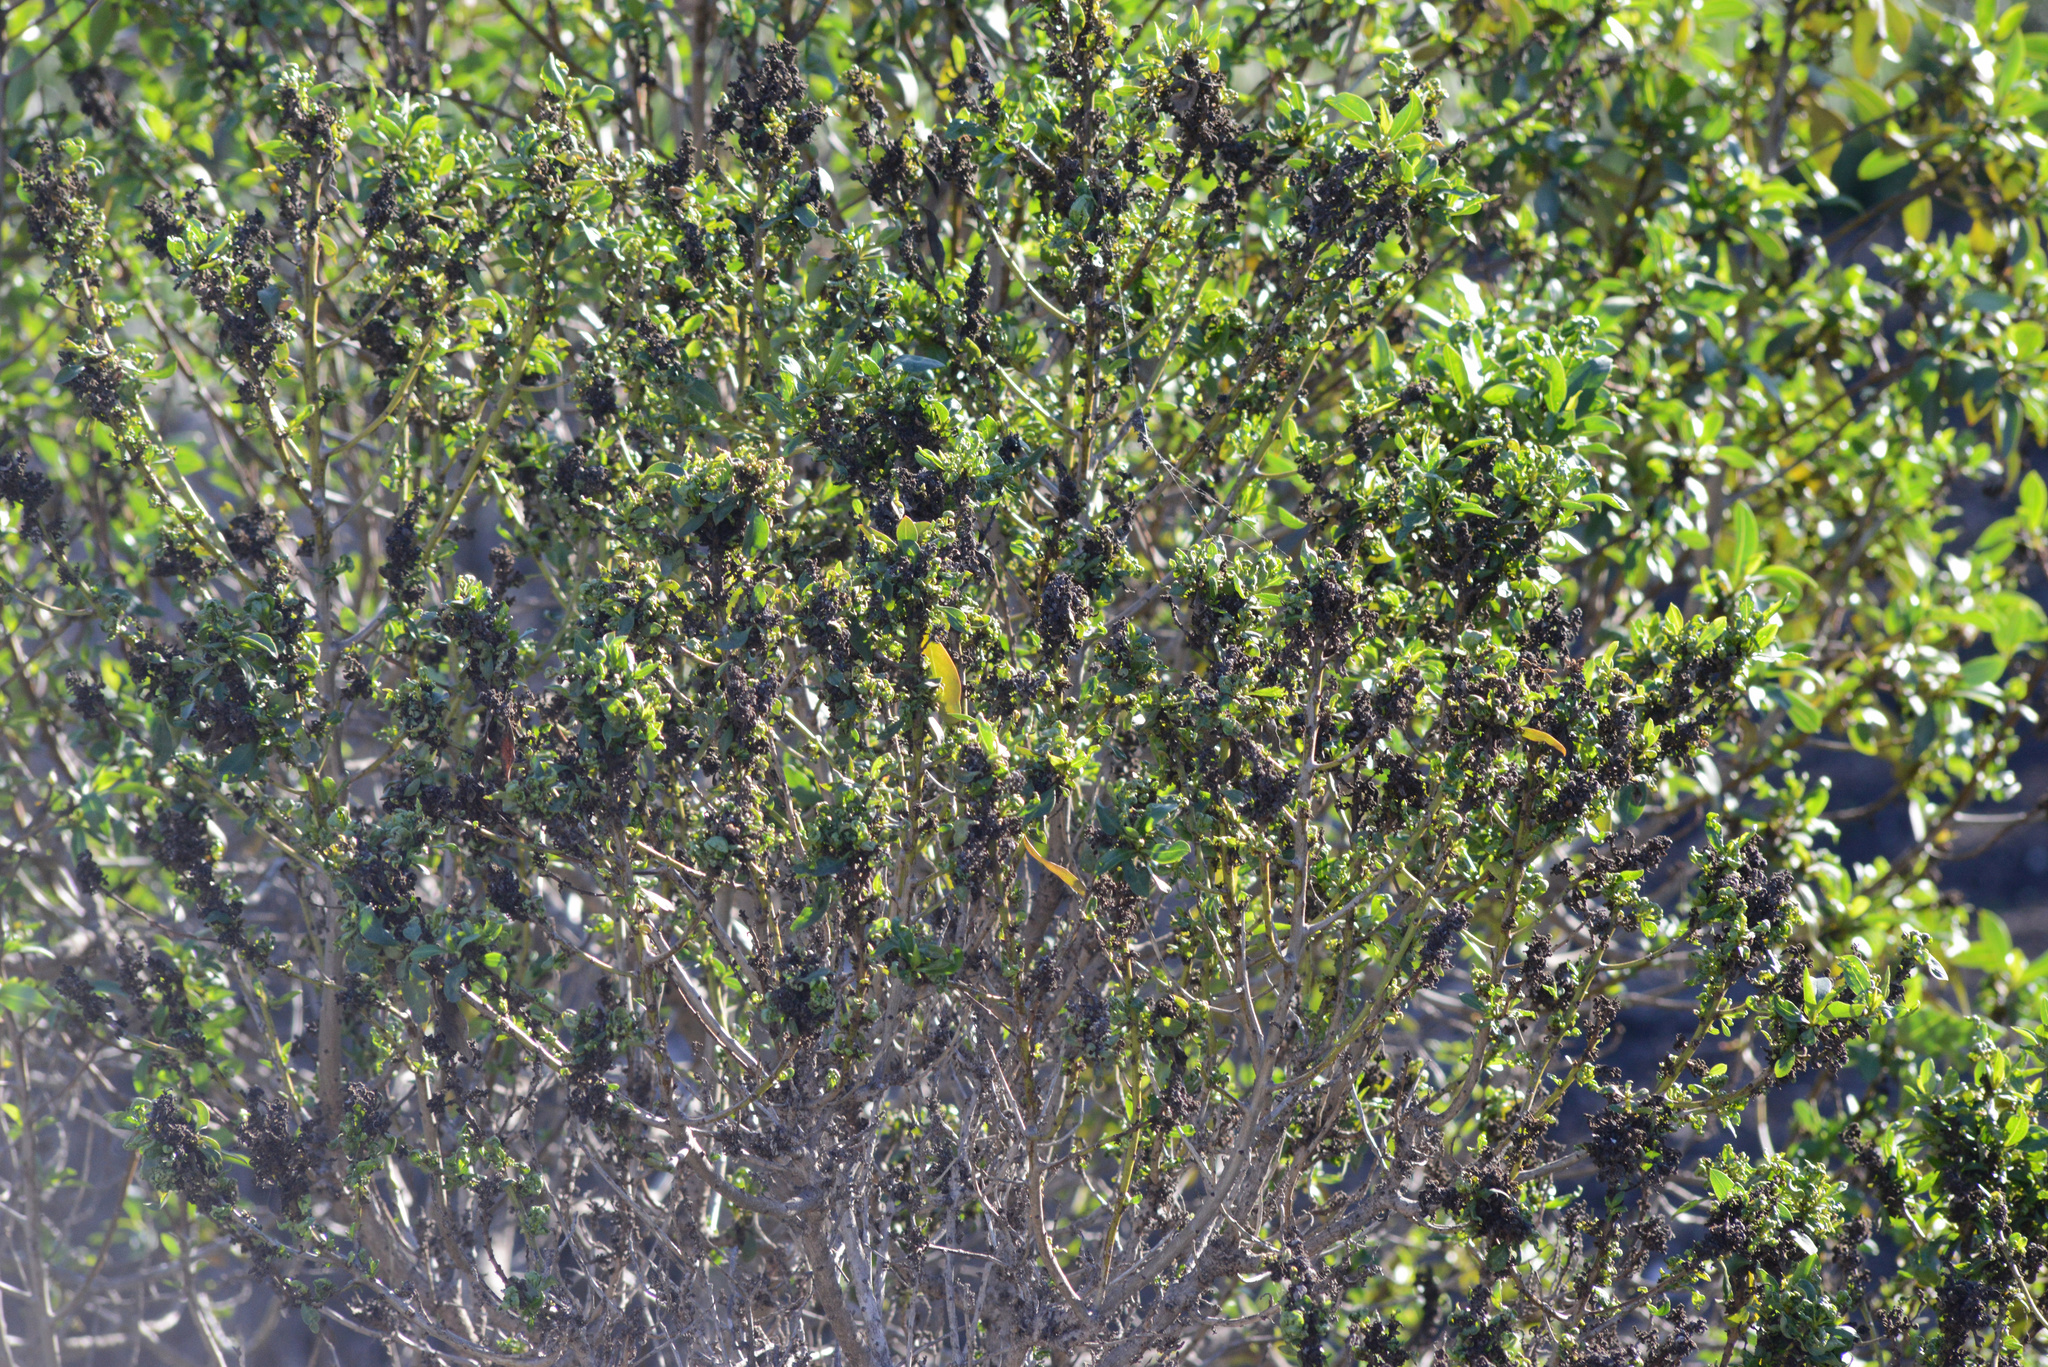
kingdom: Plantae
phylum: Tracheophyta
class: Magnoliopsida
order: Lamiales
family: Scrophulariaceae
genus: Myoporum
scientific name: Myoporum laetum
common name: Ngaio tree
